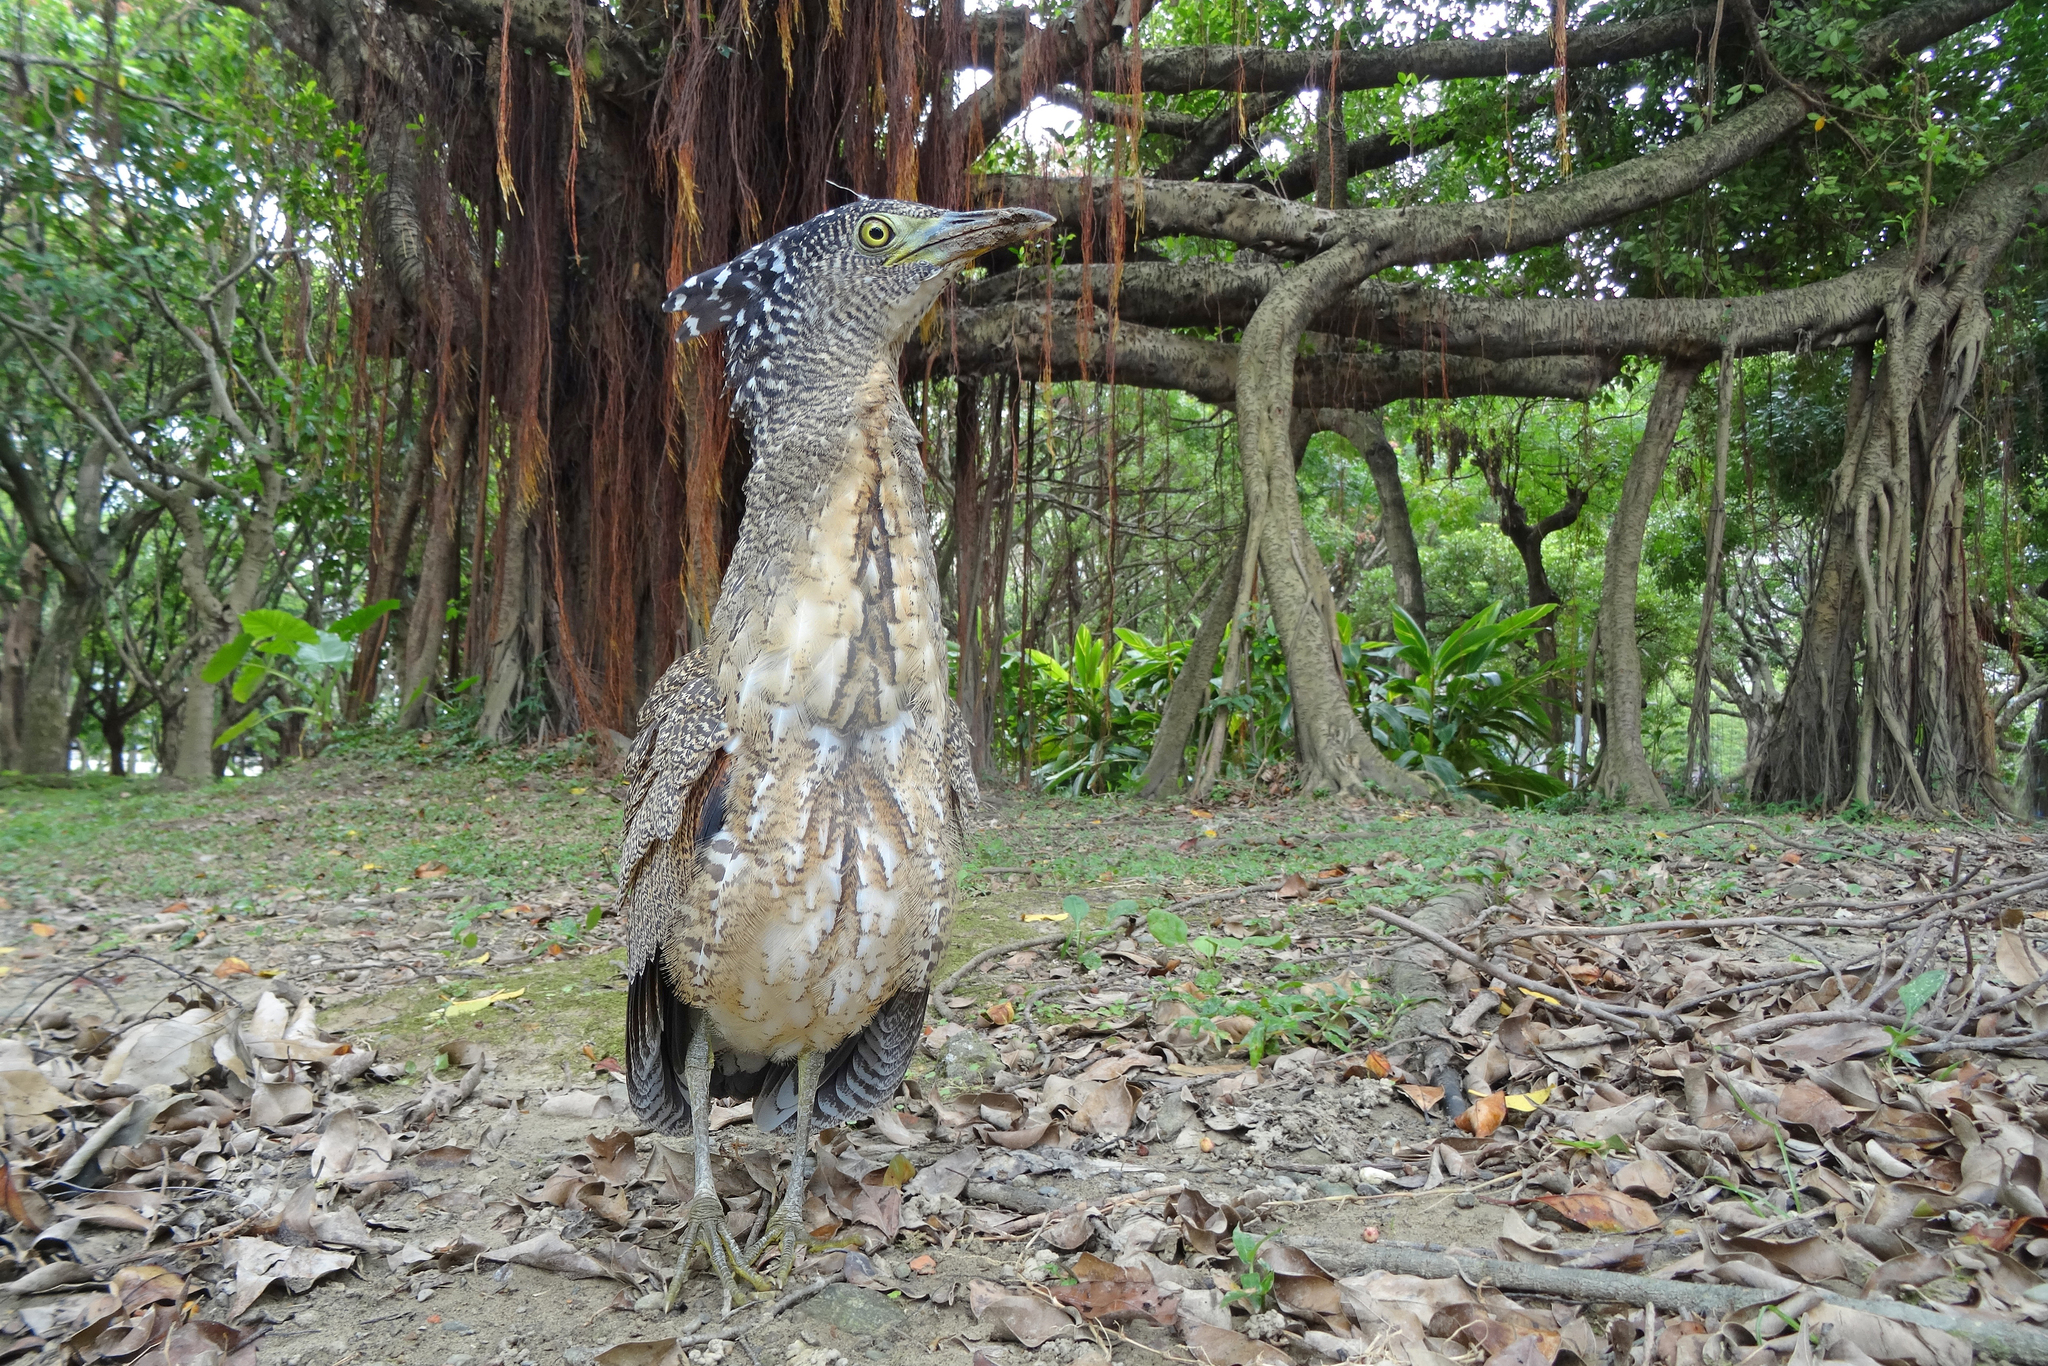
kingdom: Animalia
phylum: Chordata
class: Aves
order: Pelecaniformes
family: Ardeidae
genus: Gorsachius
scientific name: Gorsachius melanolophus
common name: Malayan night heron
